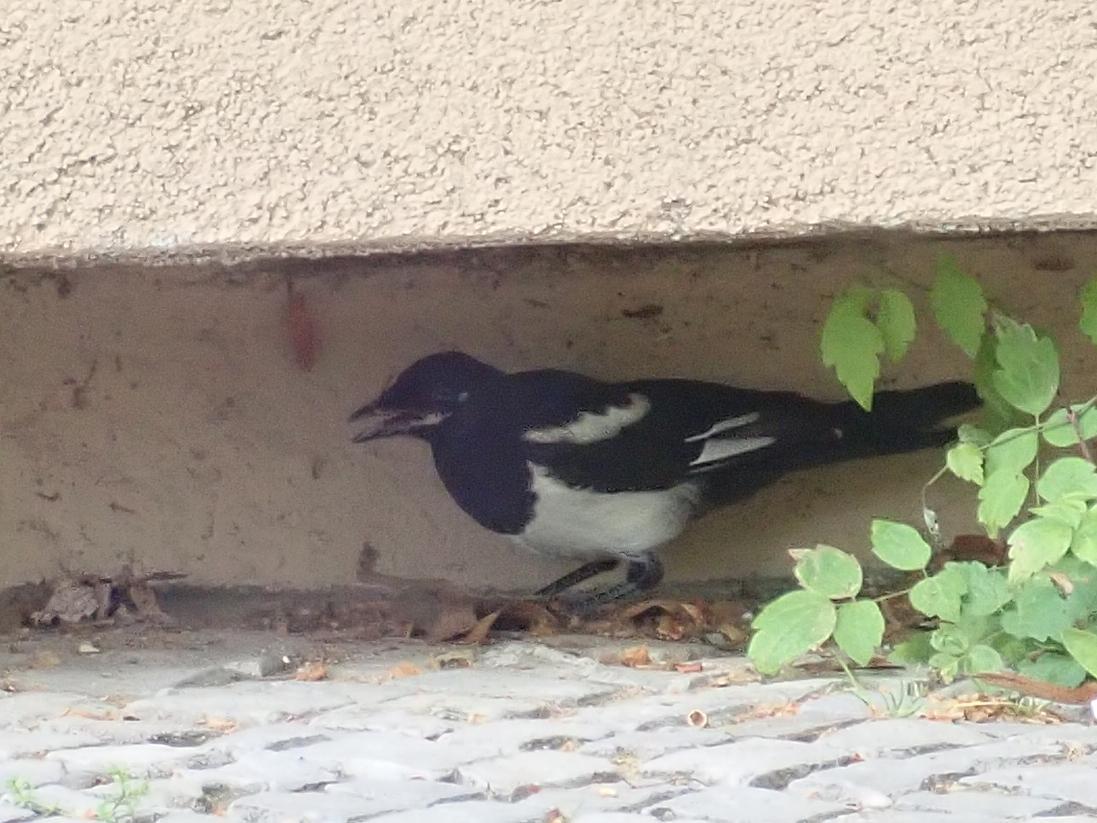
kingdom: Animalia
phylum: Chordata
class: Aves
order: Passeriformes
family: Corvidae
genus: Pica
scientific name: Pica pica
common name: Eurasian magpie
